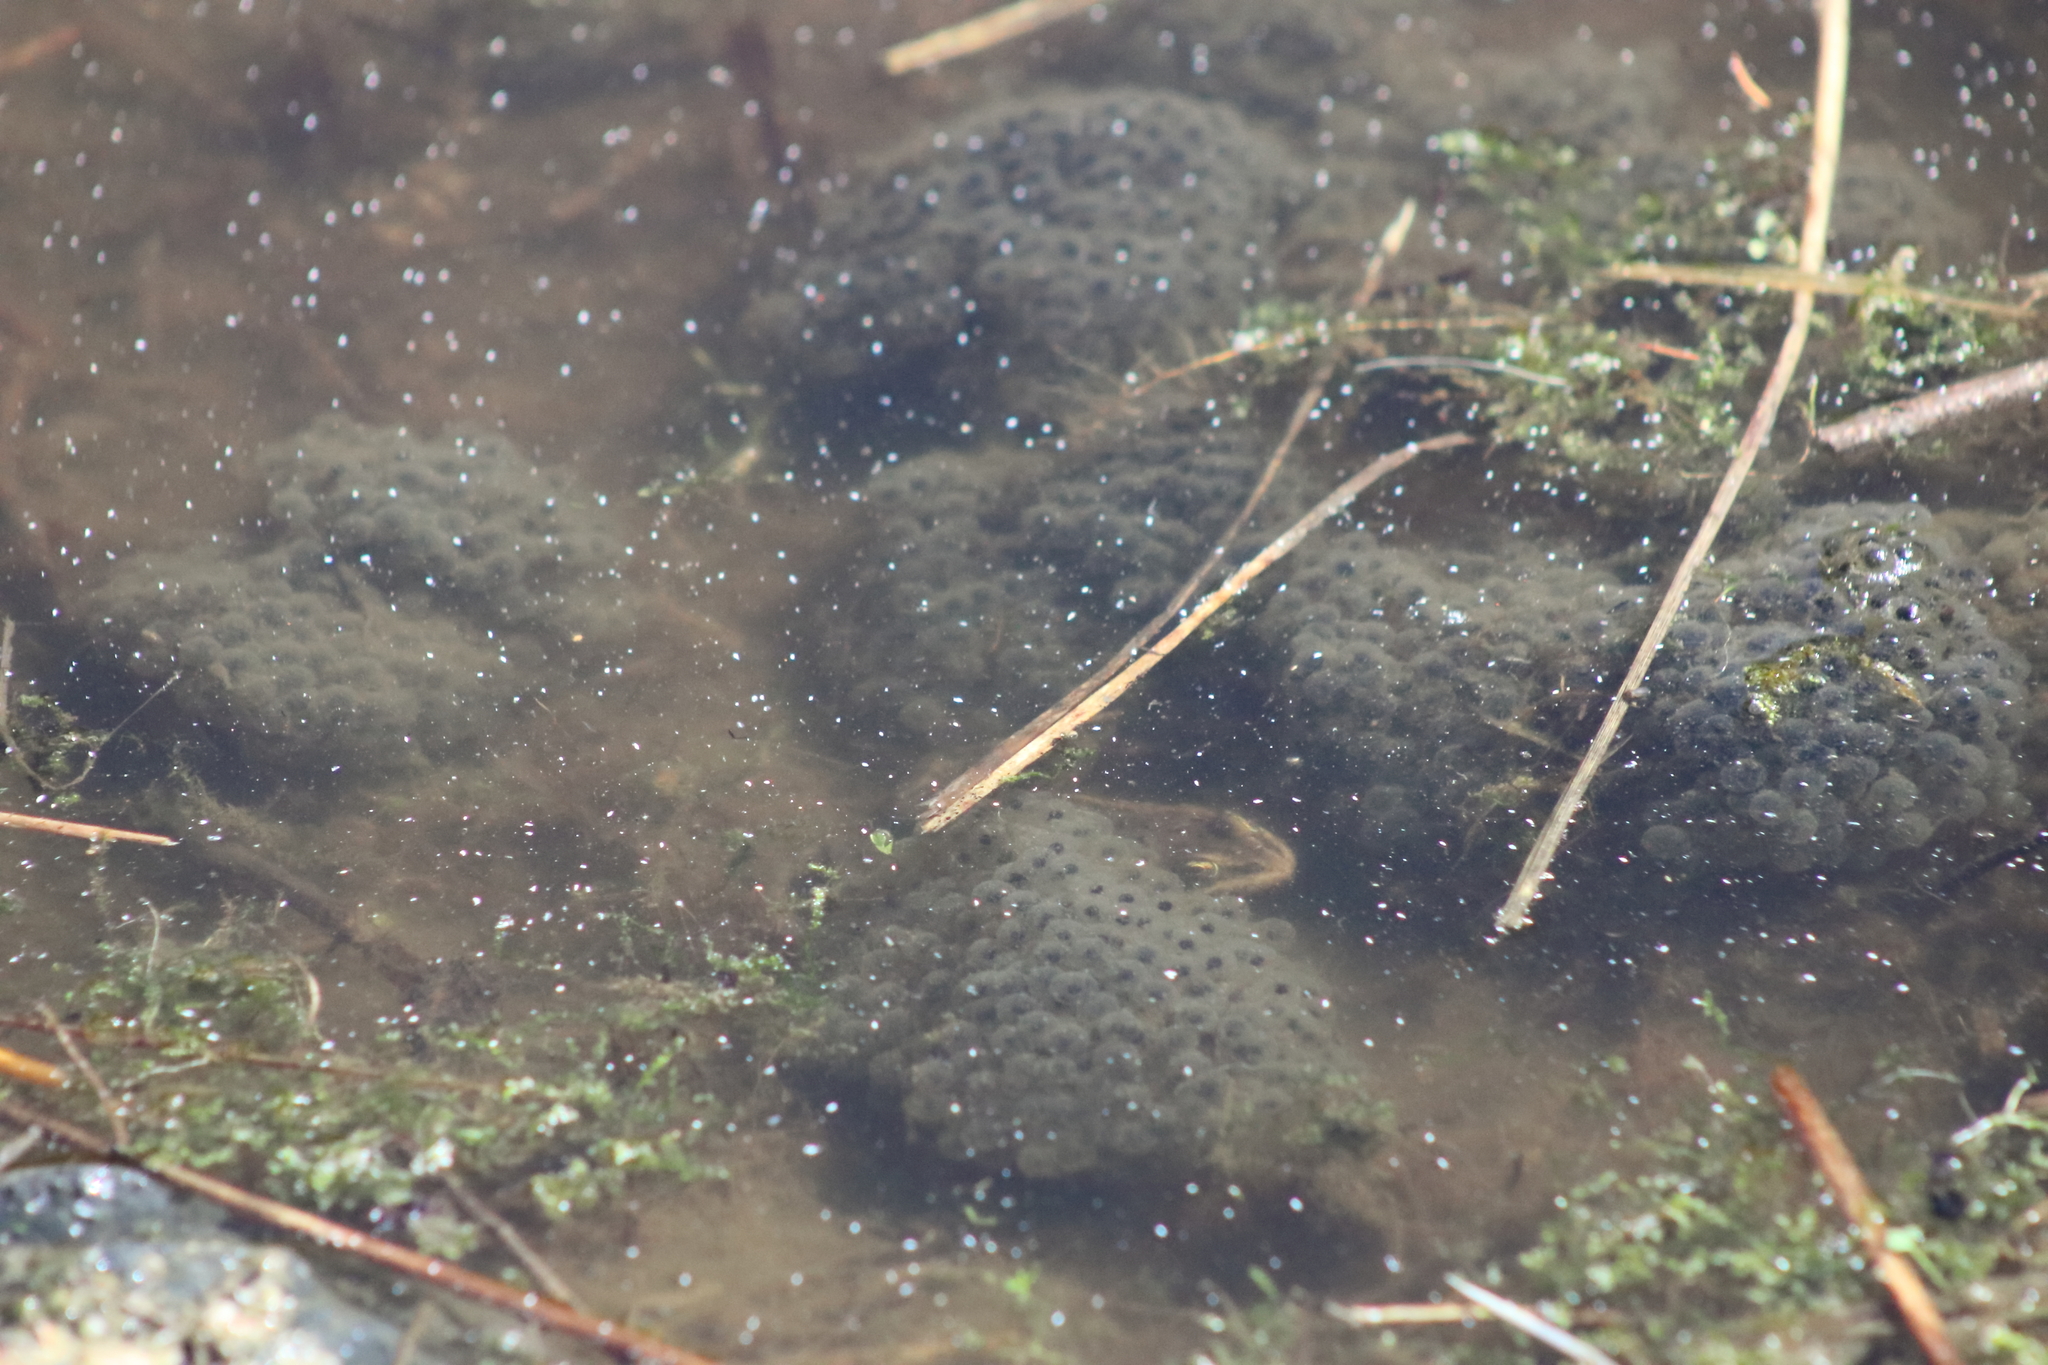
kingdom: Animalia
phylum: Chordata
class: Amphibia
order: Anura
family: Ranidae
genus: Rana
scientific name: Rana luteiventris
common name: Columbia spotted frog
